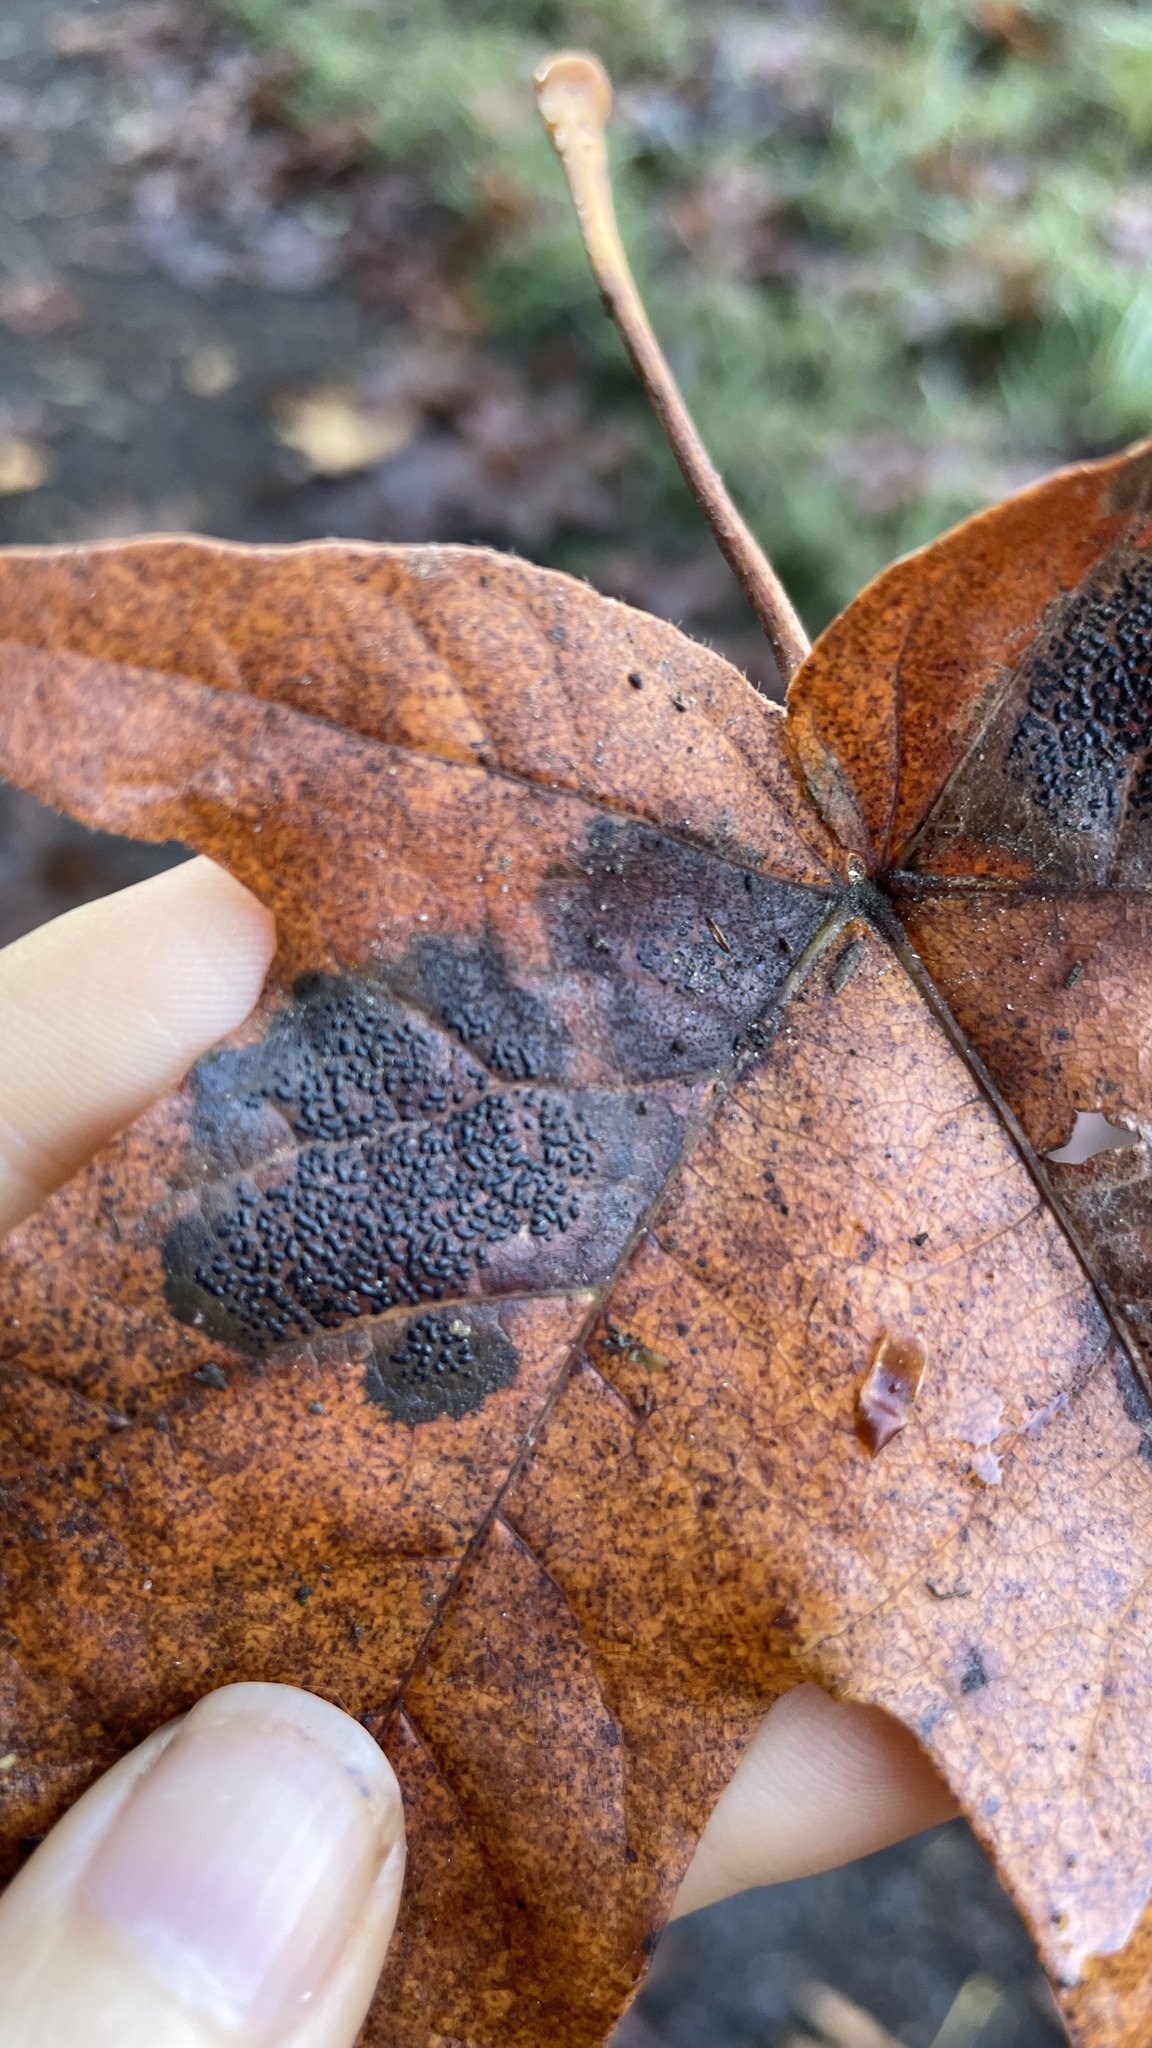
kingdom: Fungi
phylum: Ascomycota
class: Leotiomycetes
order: Rhytismatales
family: Rhytismataceae
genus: Rhytisma
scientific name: Rhytisma punctatum
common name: Speckled tar spot
